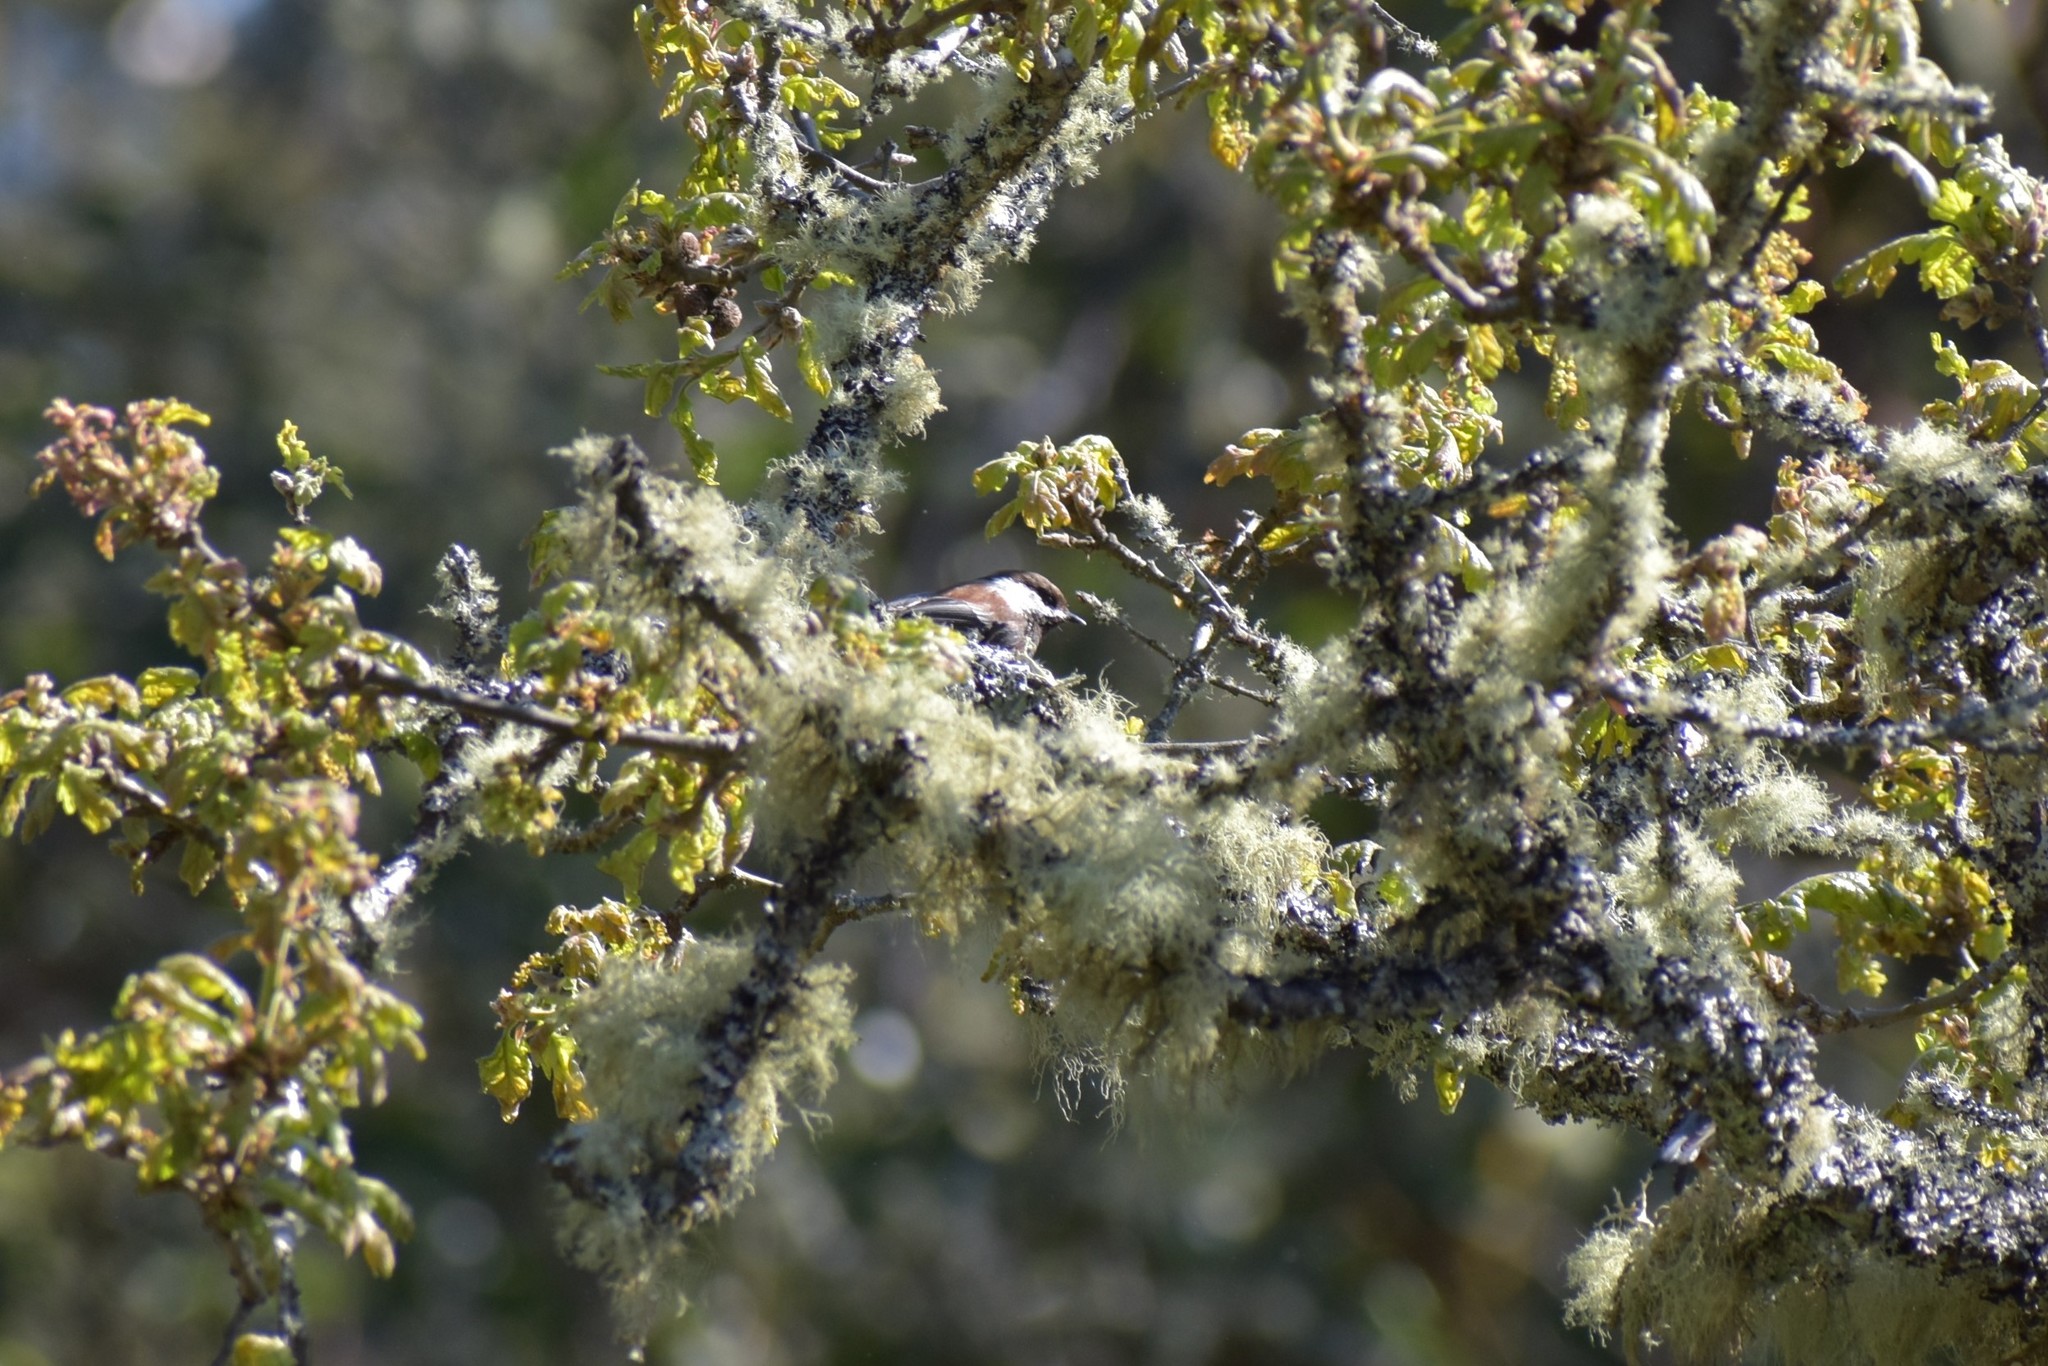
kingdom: Animalia
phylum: Chordata
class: Aves
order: Passeriformes
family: Paridae
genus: Poecile
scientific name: Poecile rufescens
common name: Chestnut-backed chickadee
